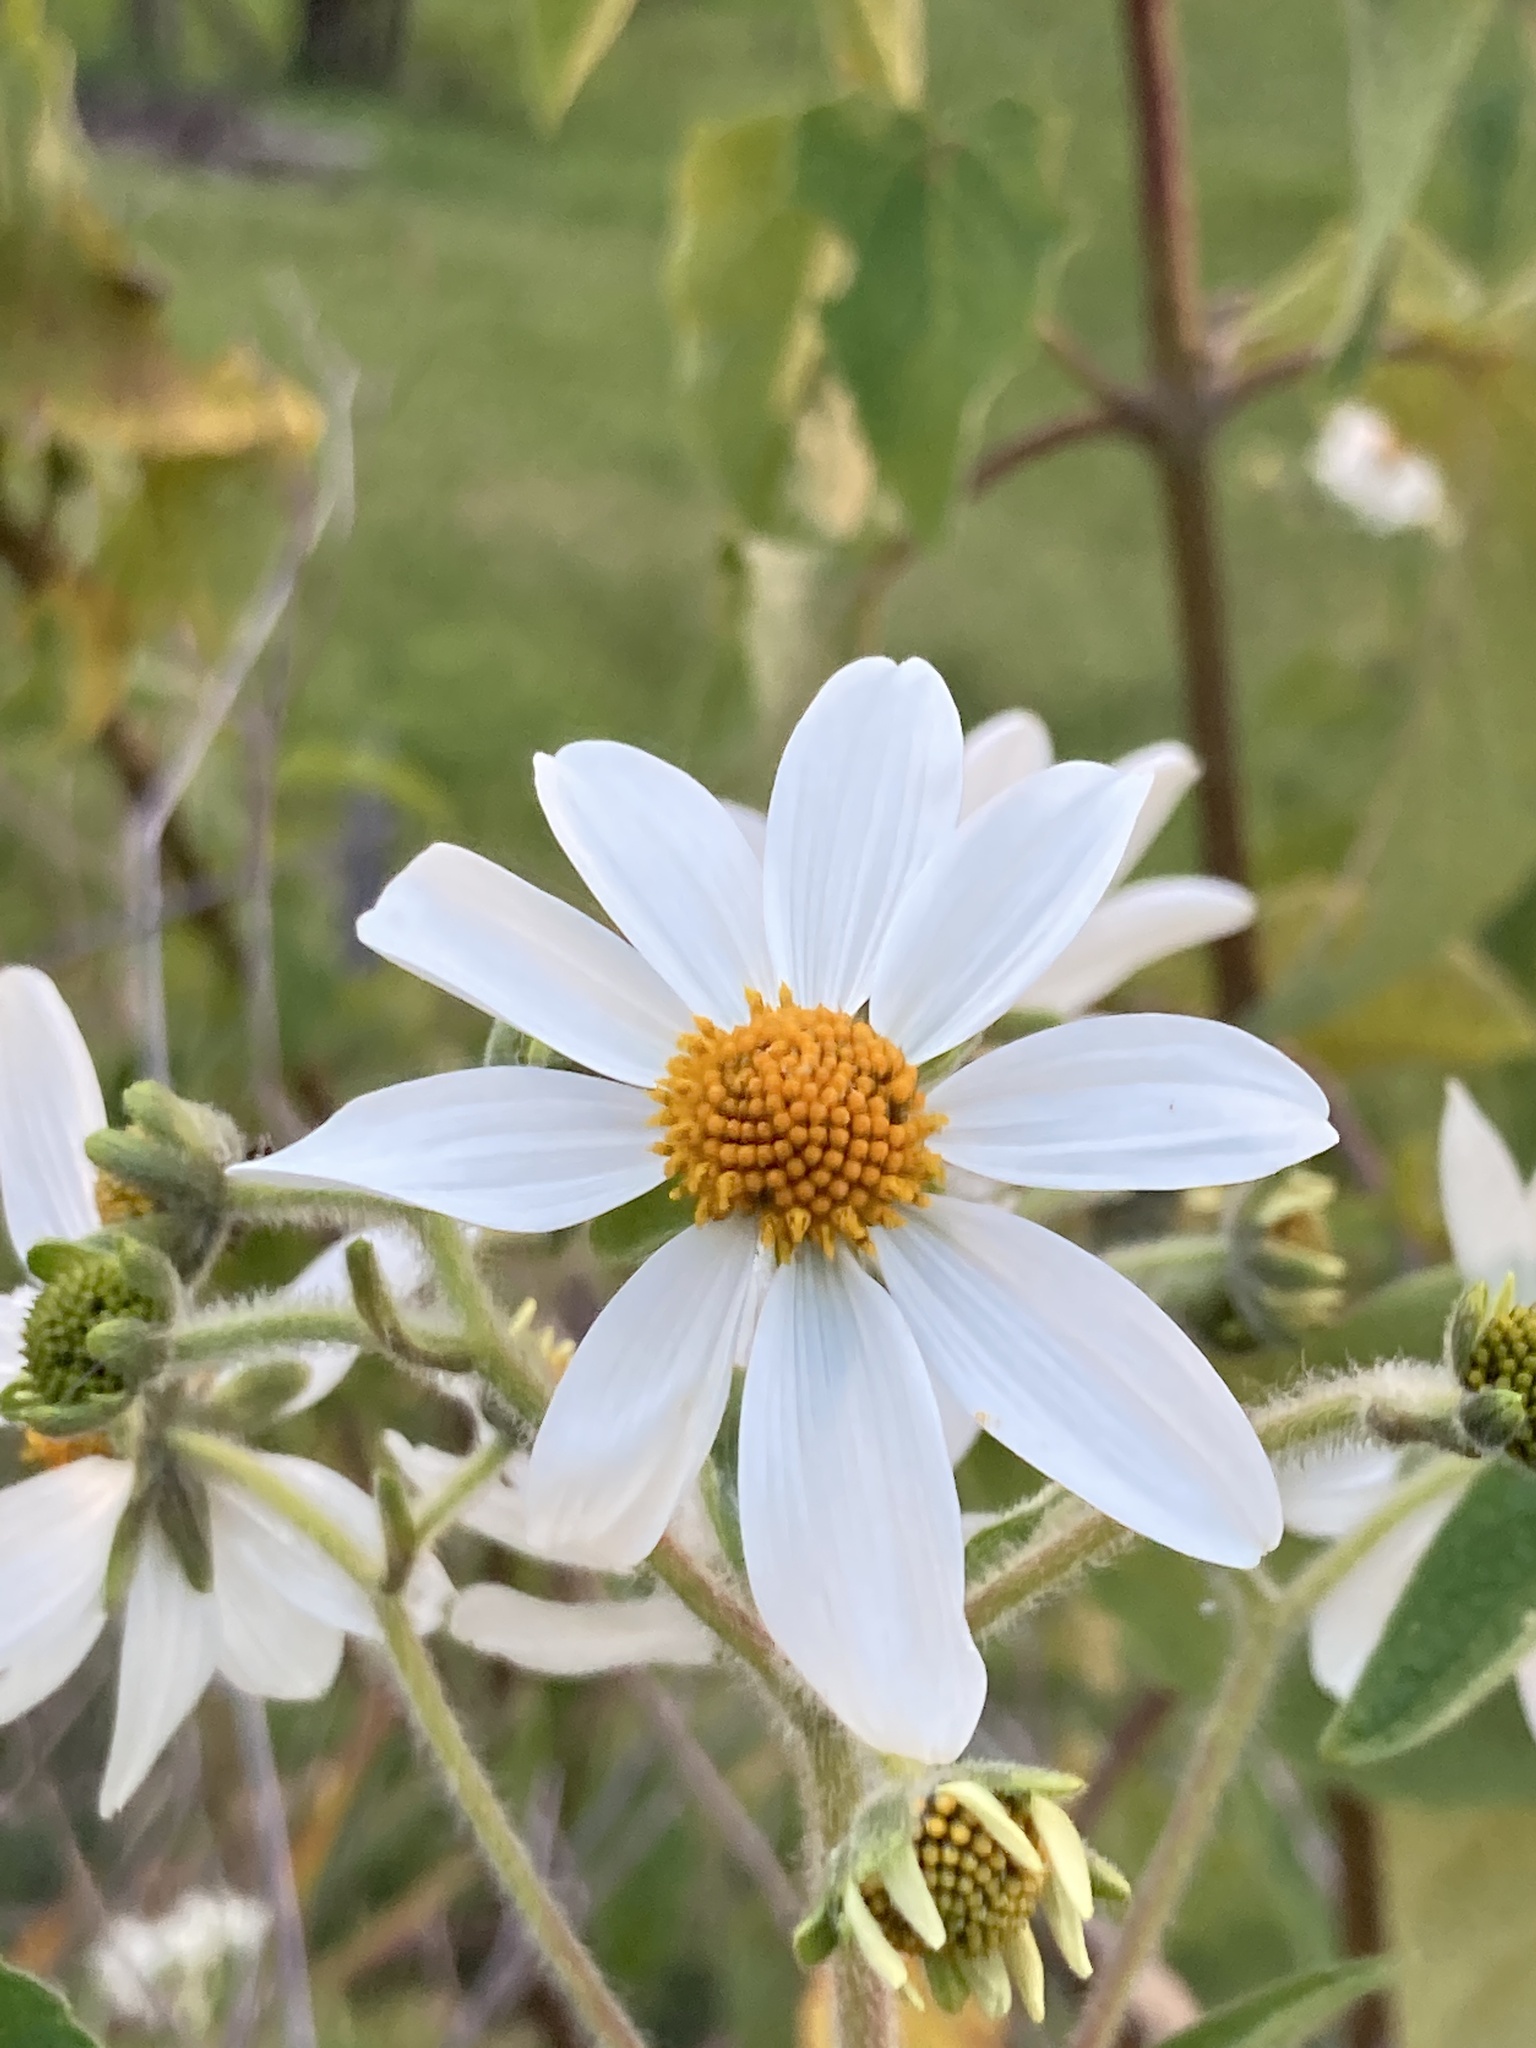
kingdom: Plantae
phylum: Tracheophyta
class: Magnoliopsida
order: Asterales
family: Asteraceae
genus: Montanoa
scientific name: Montanoa ovalifolia
